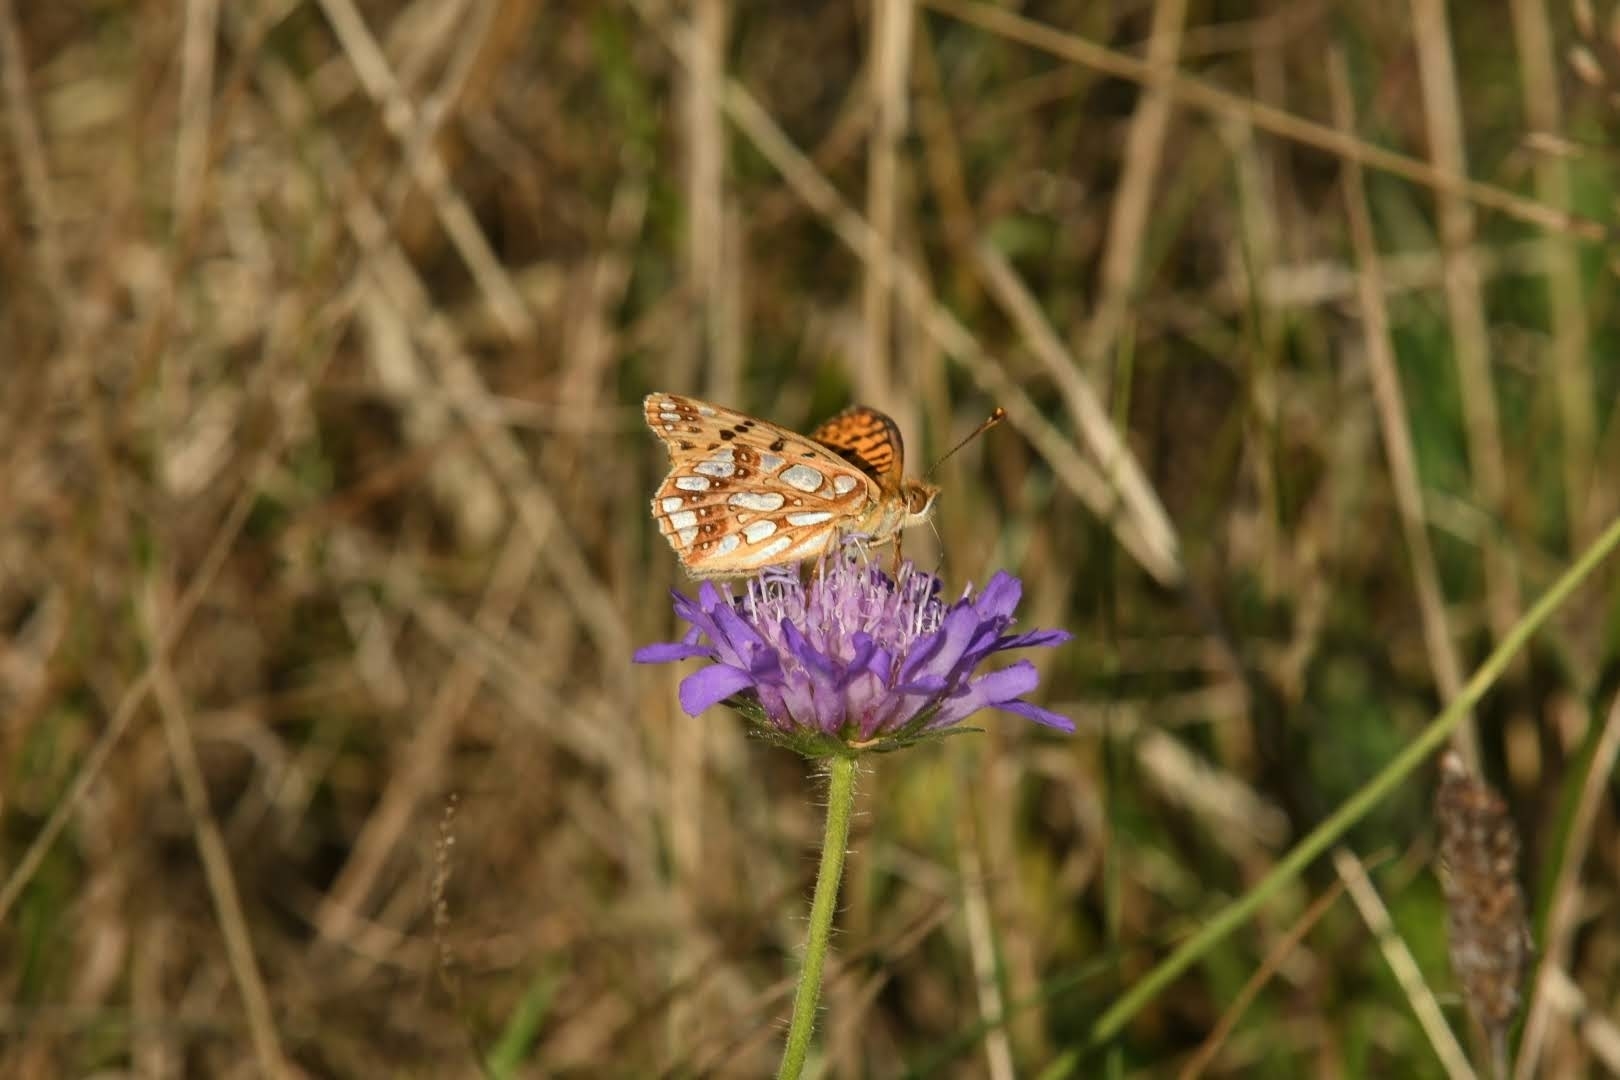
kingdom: Animalia
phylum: Arthropoda
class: Insecta
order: Lepidoptera
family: Nymphalidae
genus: Issoria
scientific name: Issoria lathonia
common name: Queen of spain fritillary
